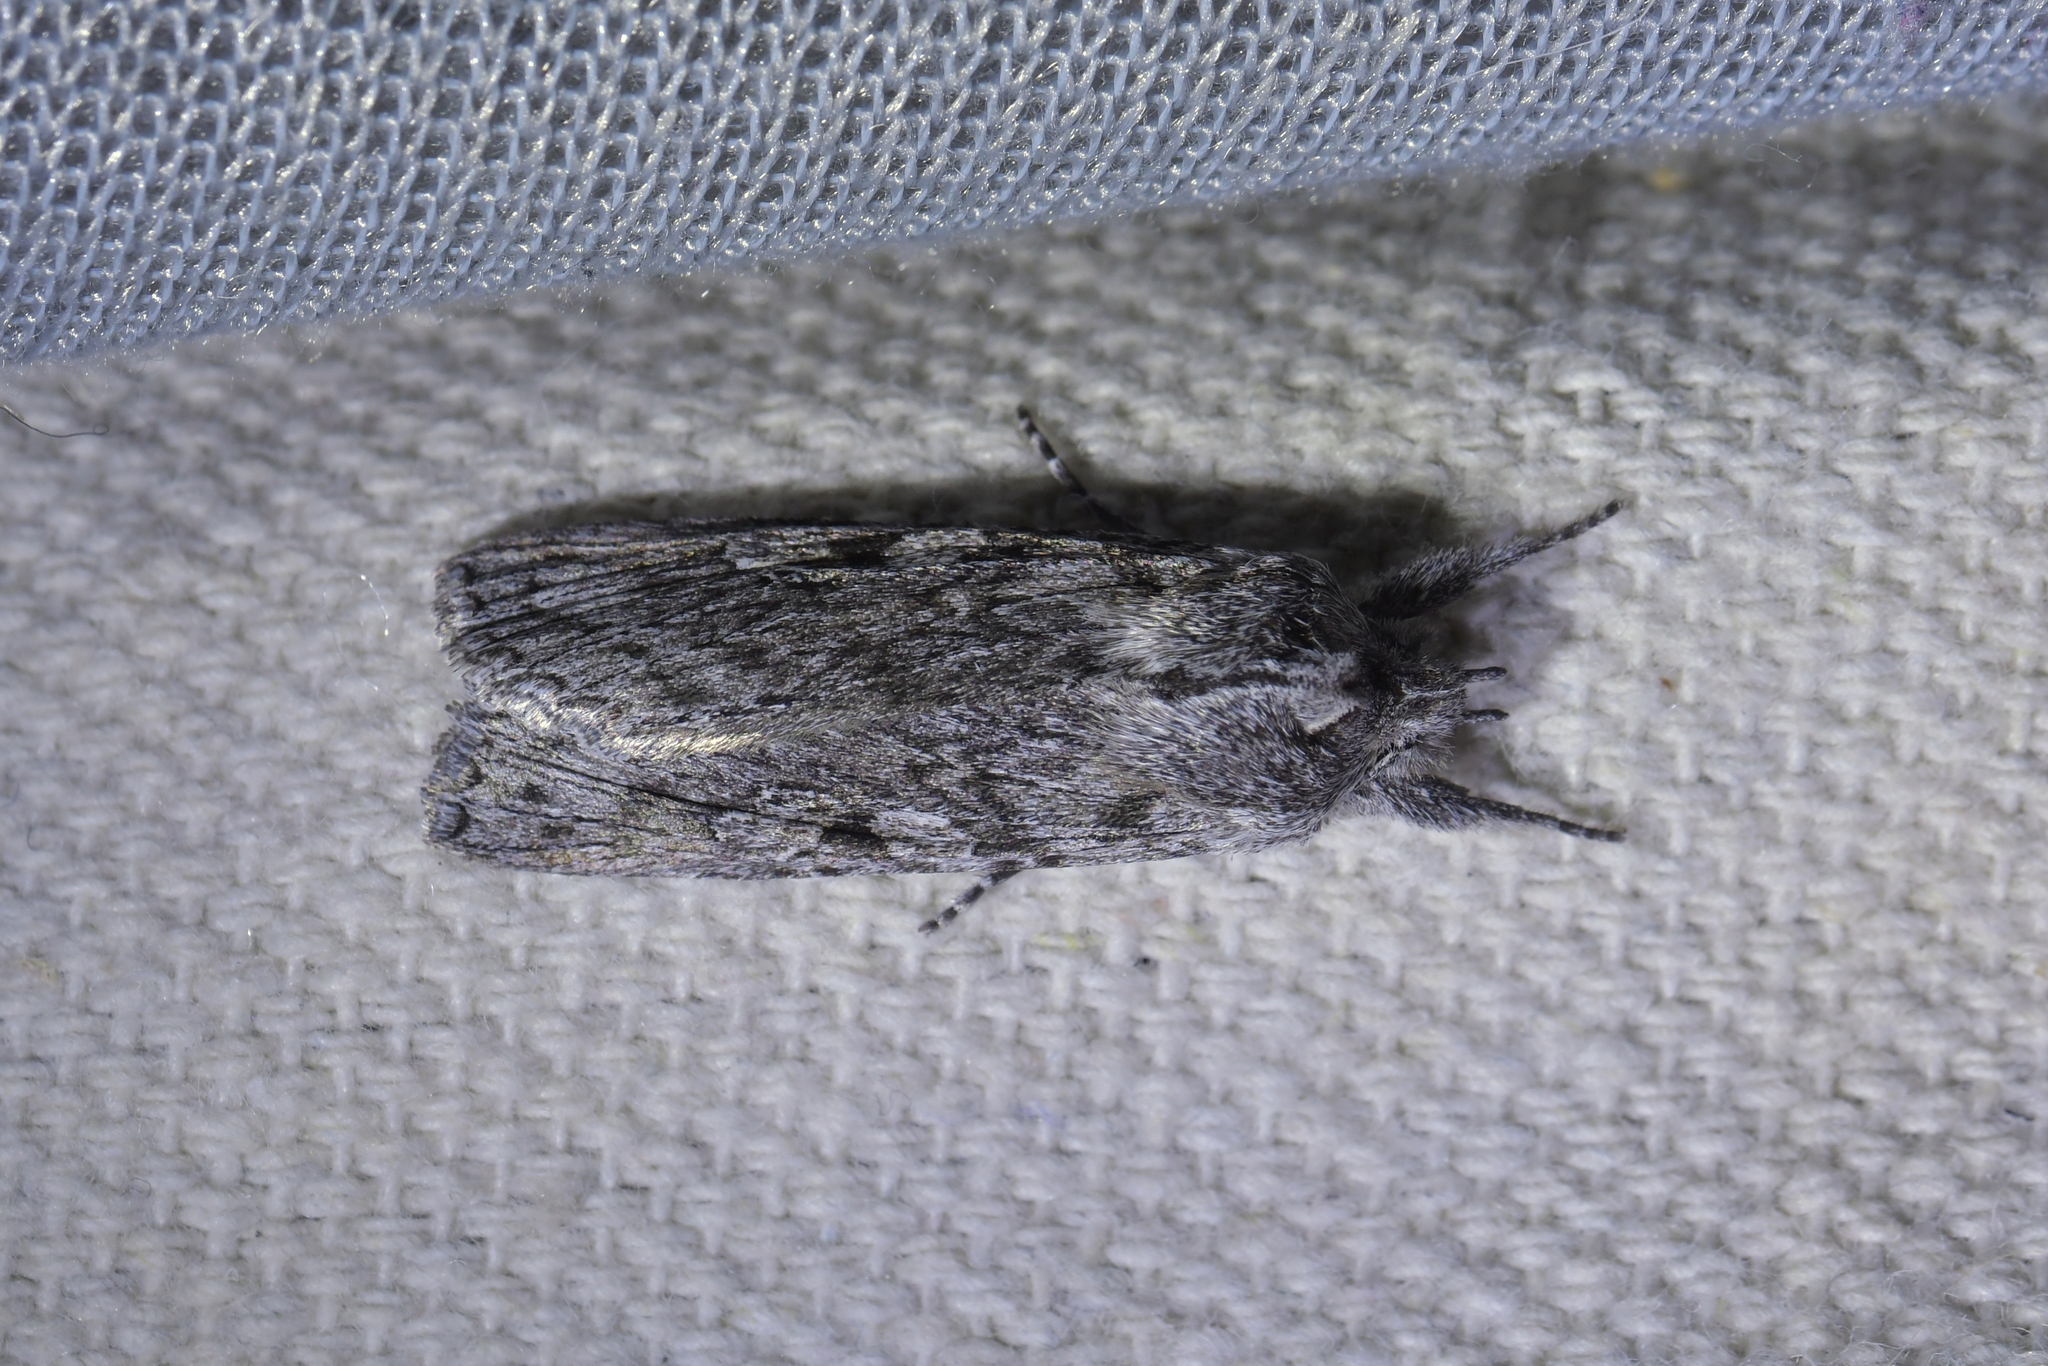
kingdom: Animalia
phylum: Arthropoda
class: Insecta
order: Lepidoptera
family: Noctuidae
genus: Physetica
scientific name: Physetica phricias
